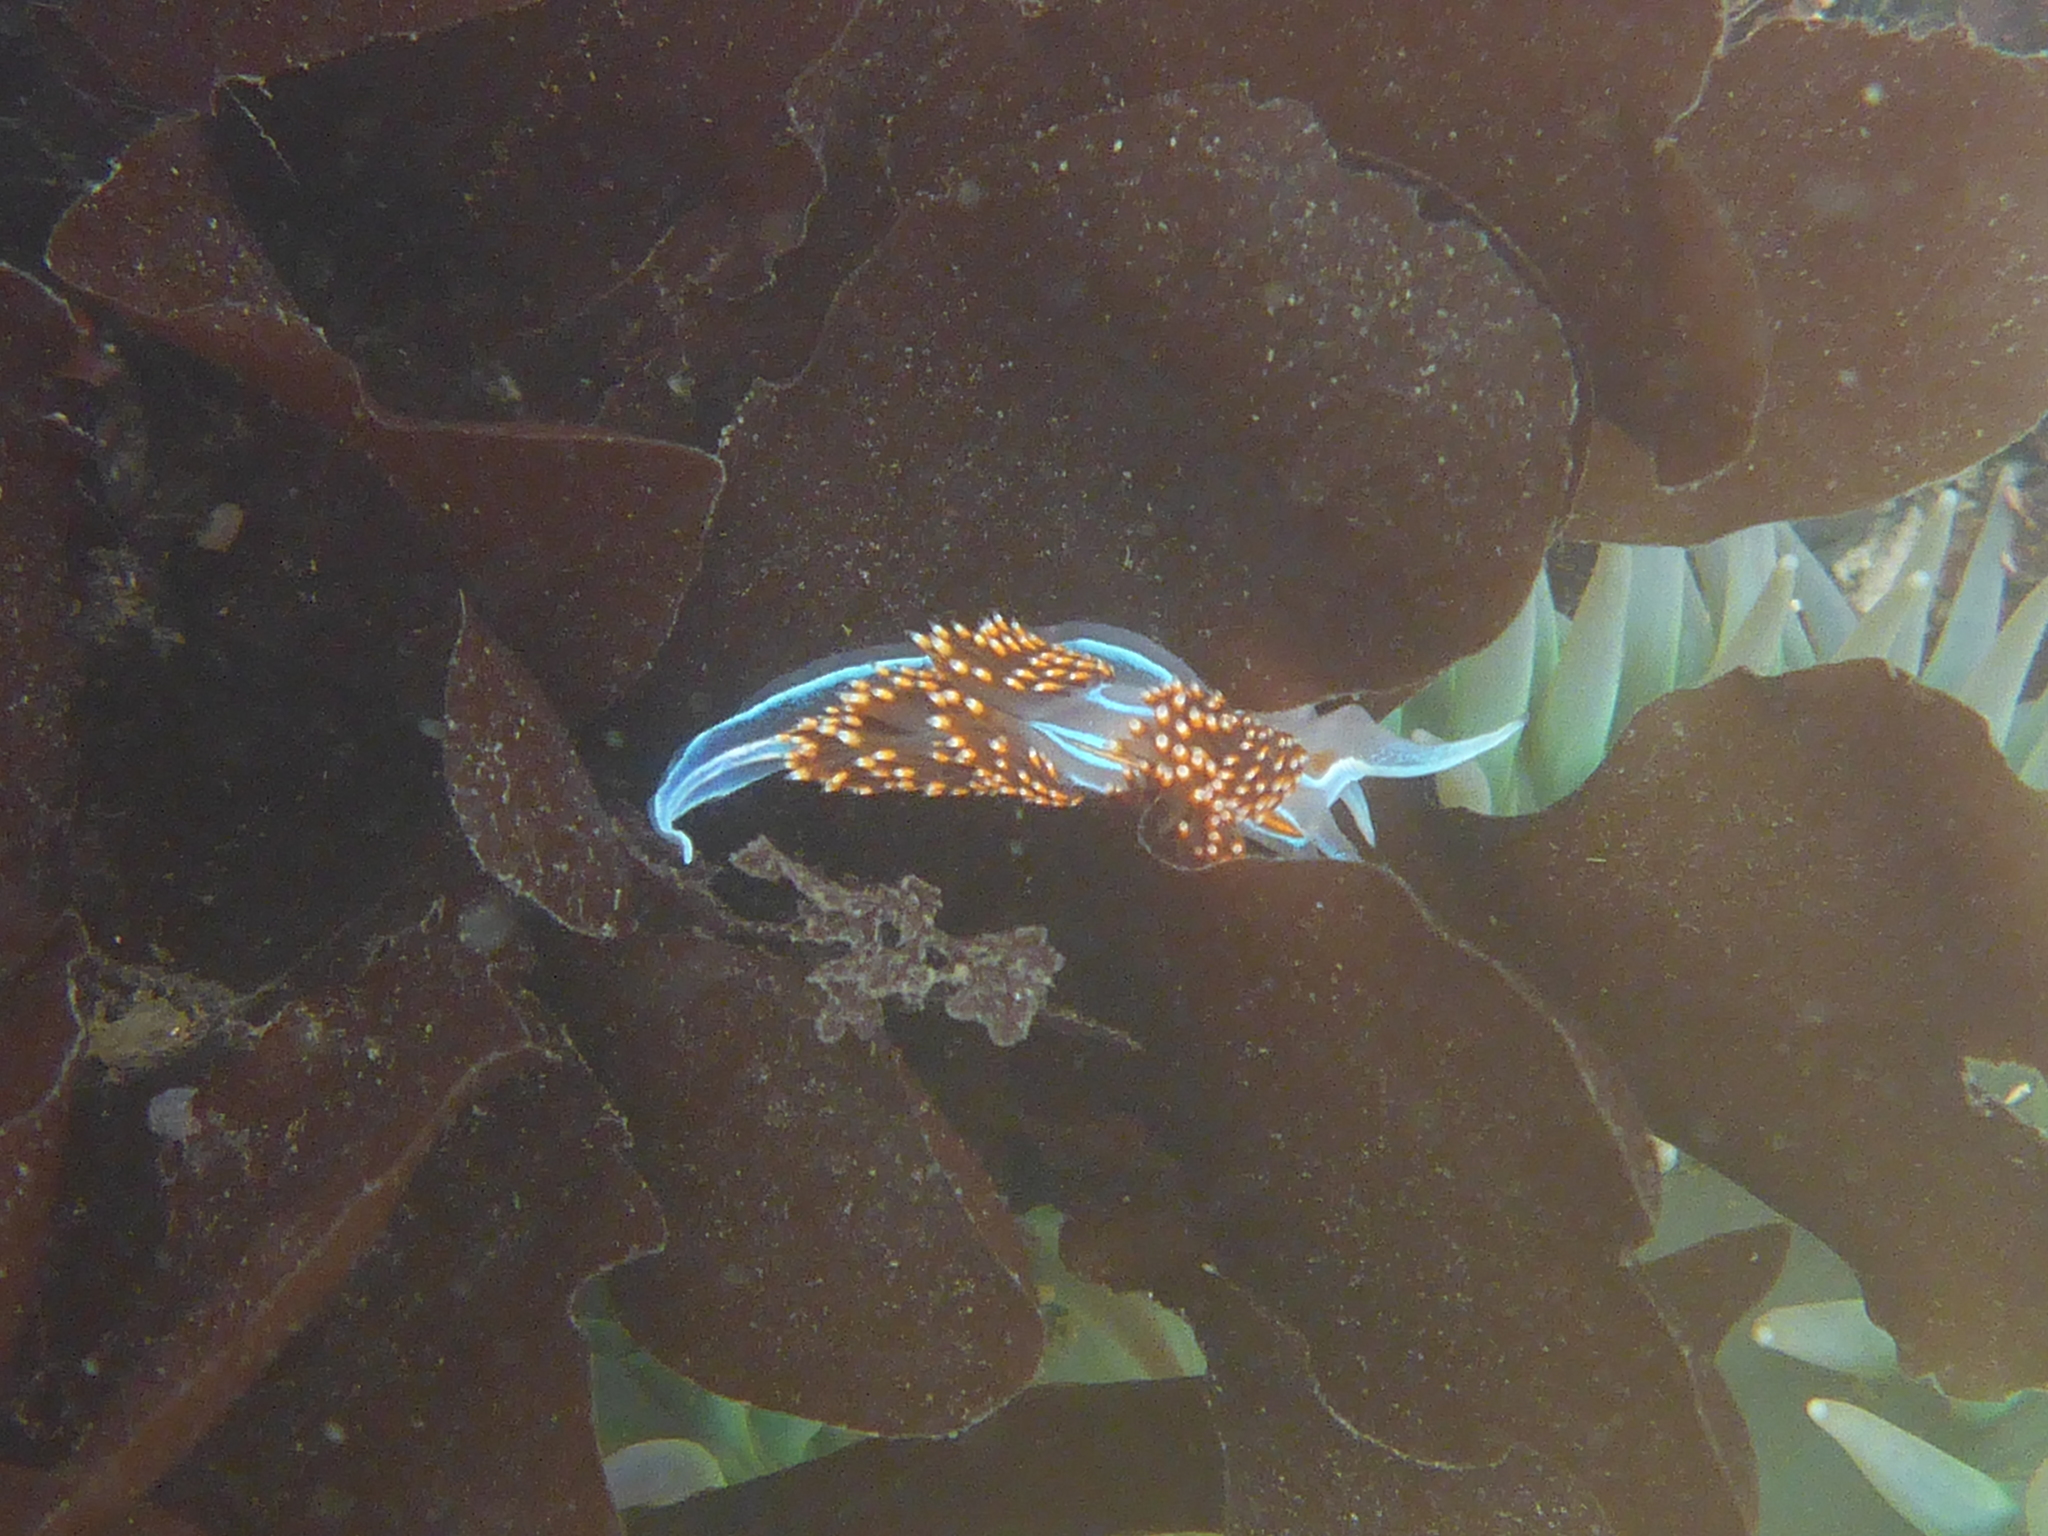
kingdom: Animalia
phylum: Mollusca
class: Gastropoda
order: Nudibranchia
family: Myrrhinidae
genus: Hermissenda
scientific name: Hermissenda opalescens
